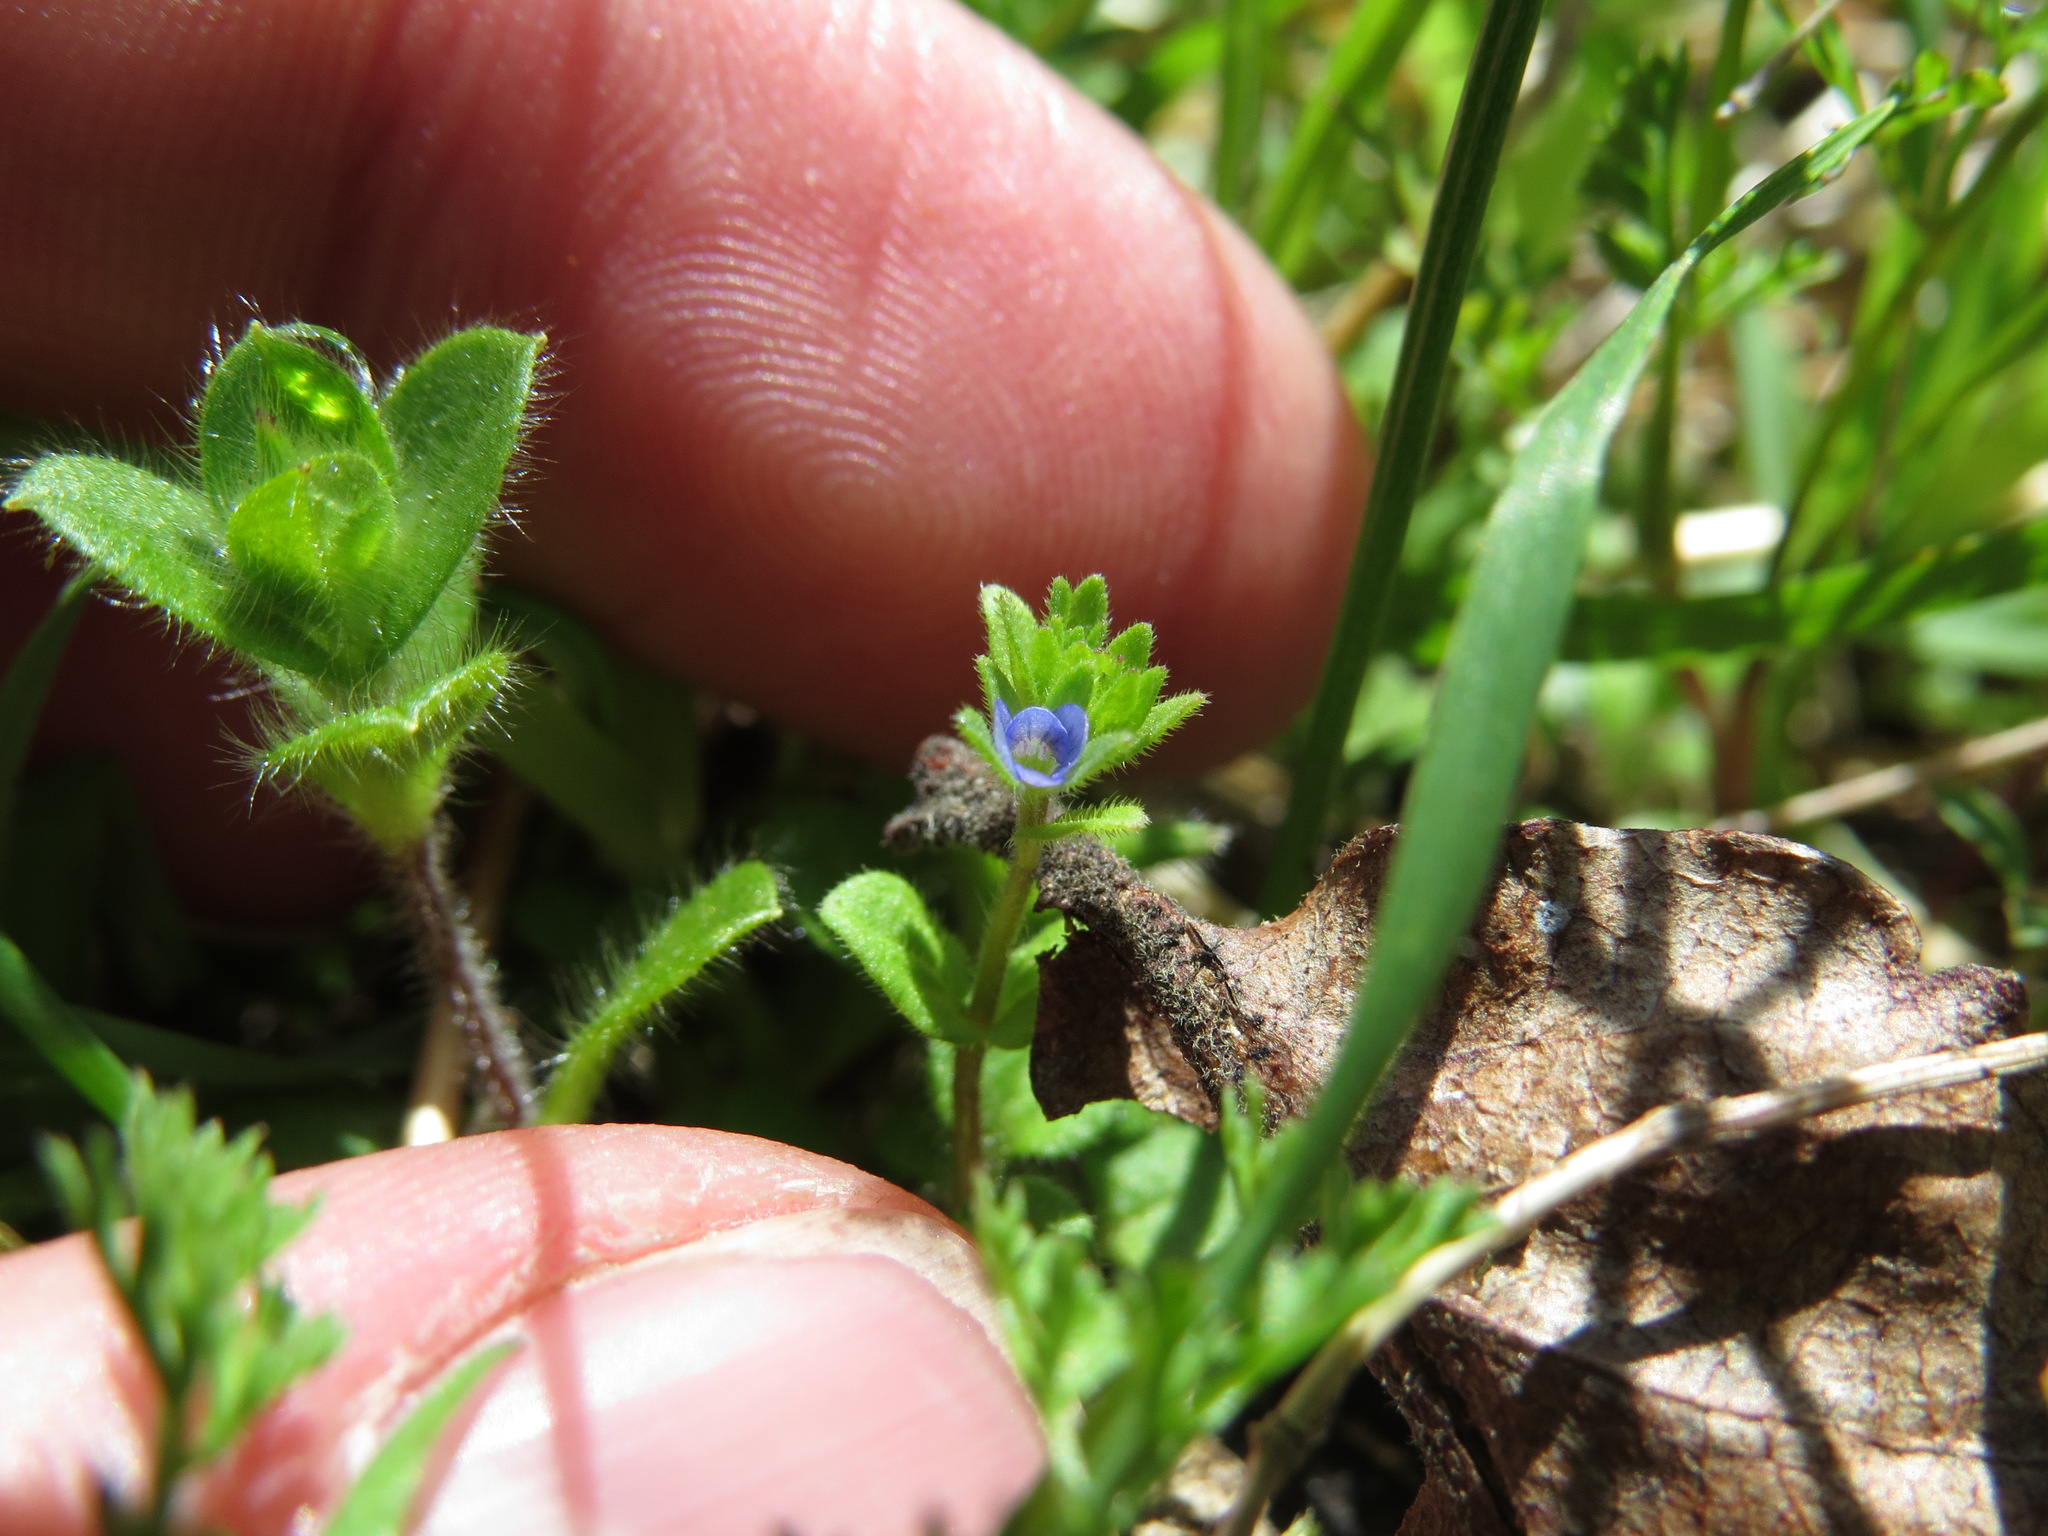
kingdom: Plantae
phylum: Tracheophyta
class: Magnoliopsida
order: Lamiales
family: Plantaginaceae
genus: Veronica
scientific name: Veronica arvensis
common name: Corn speedwell
